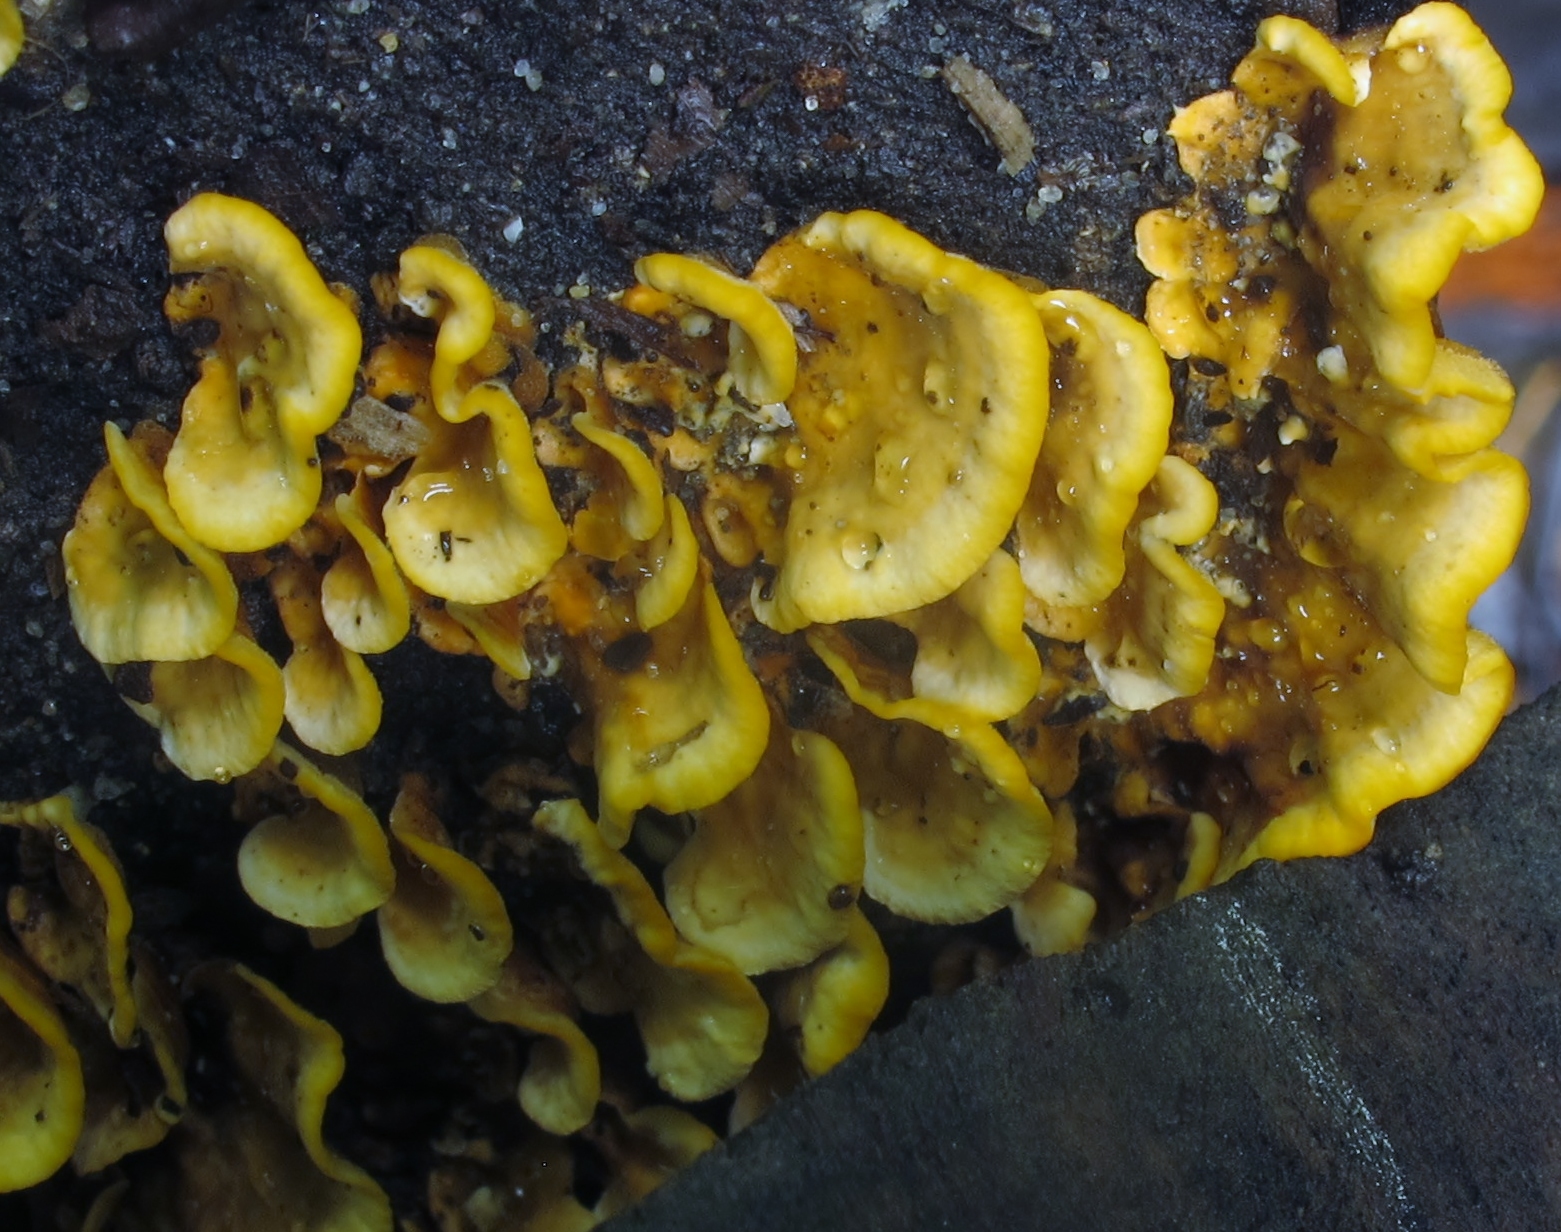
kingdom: Fungi
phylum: Basidiomycota
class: Agaricomycetes
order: Russulales
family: Stereaceae
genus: Stereum
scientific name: Stereum complicatum
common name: Crowded parchment
